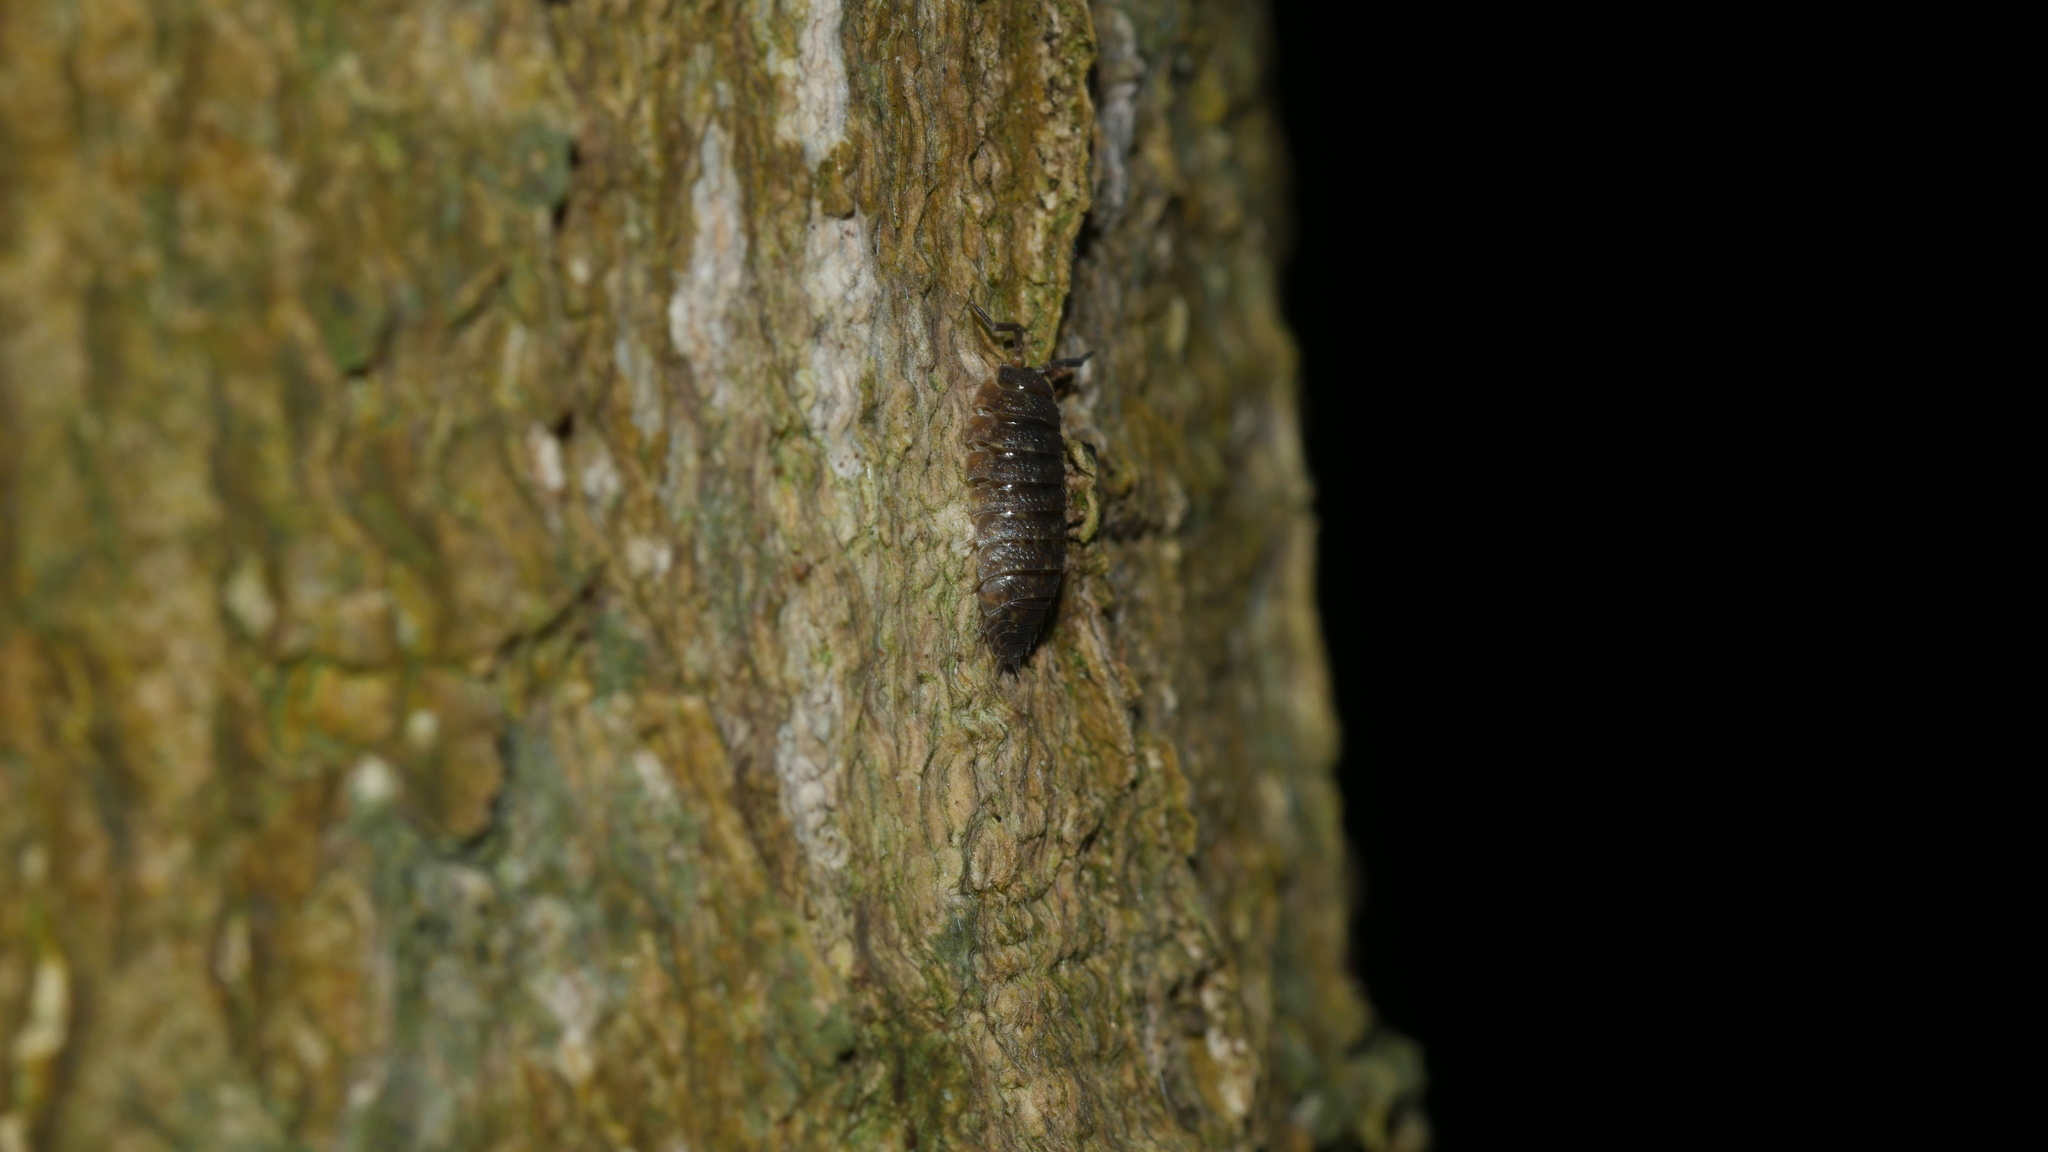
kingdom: Animalia
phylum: Arthropoda
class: Malacostraca
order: Isopoda
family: Porcellionidae
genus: Porcellio
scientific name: Porcellio scaber
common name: Common rough woodlouse
